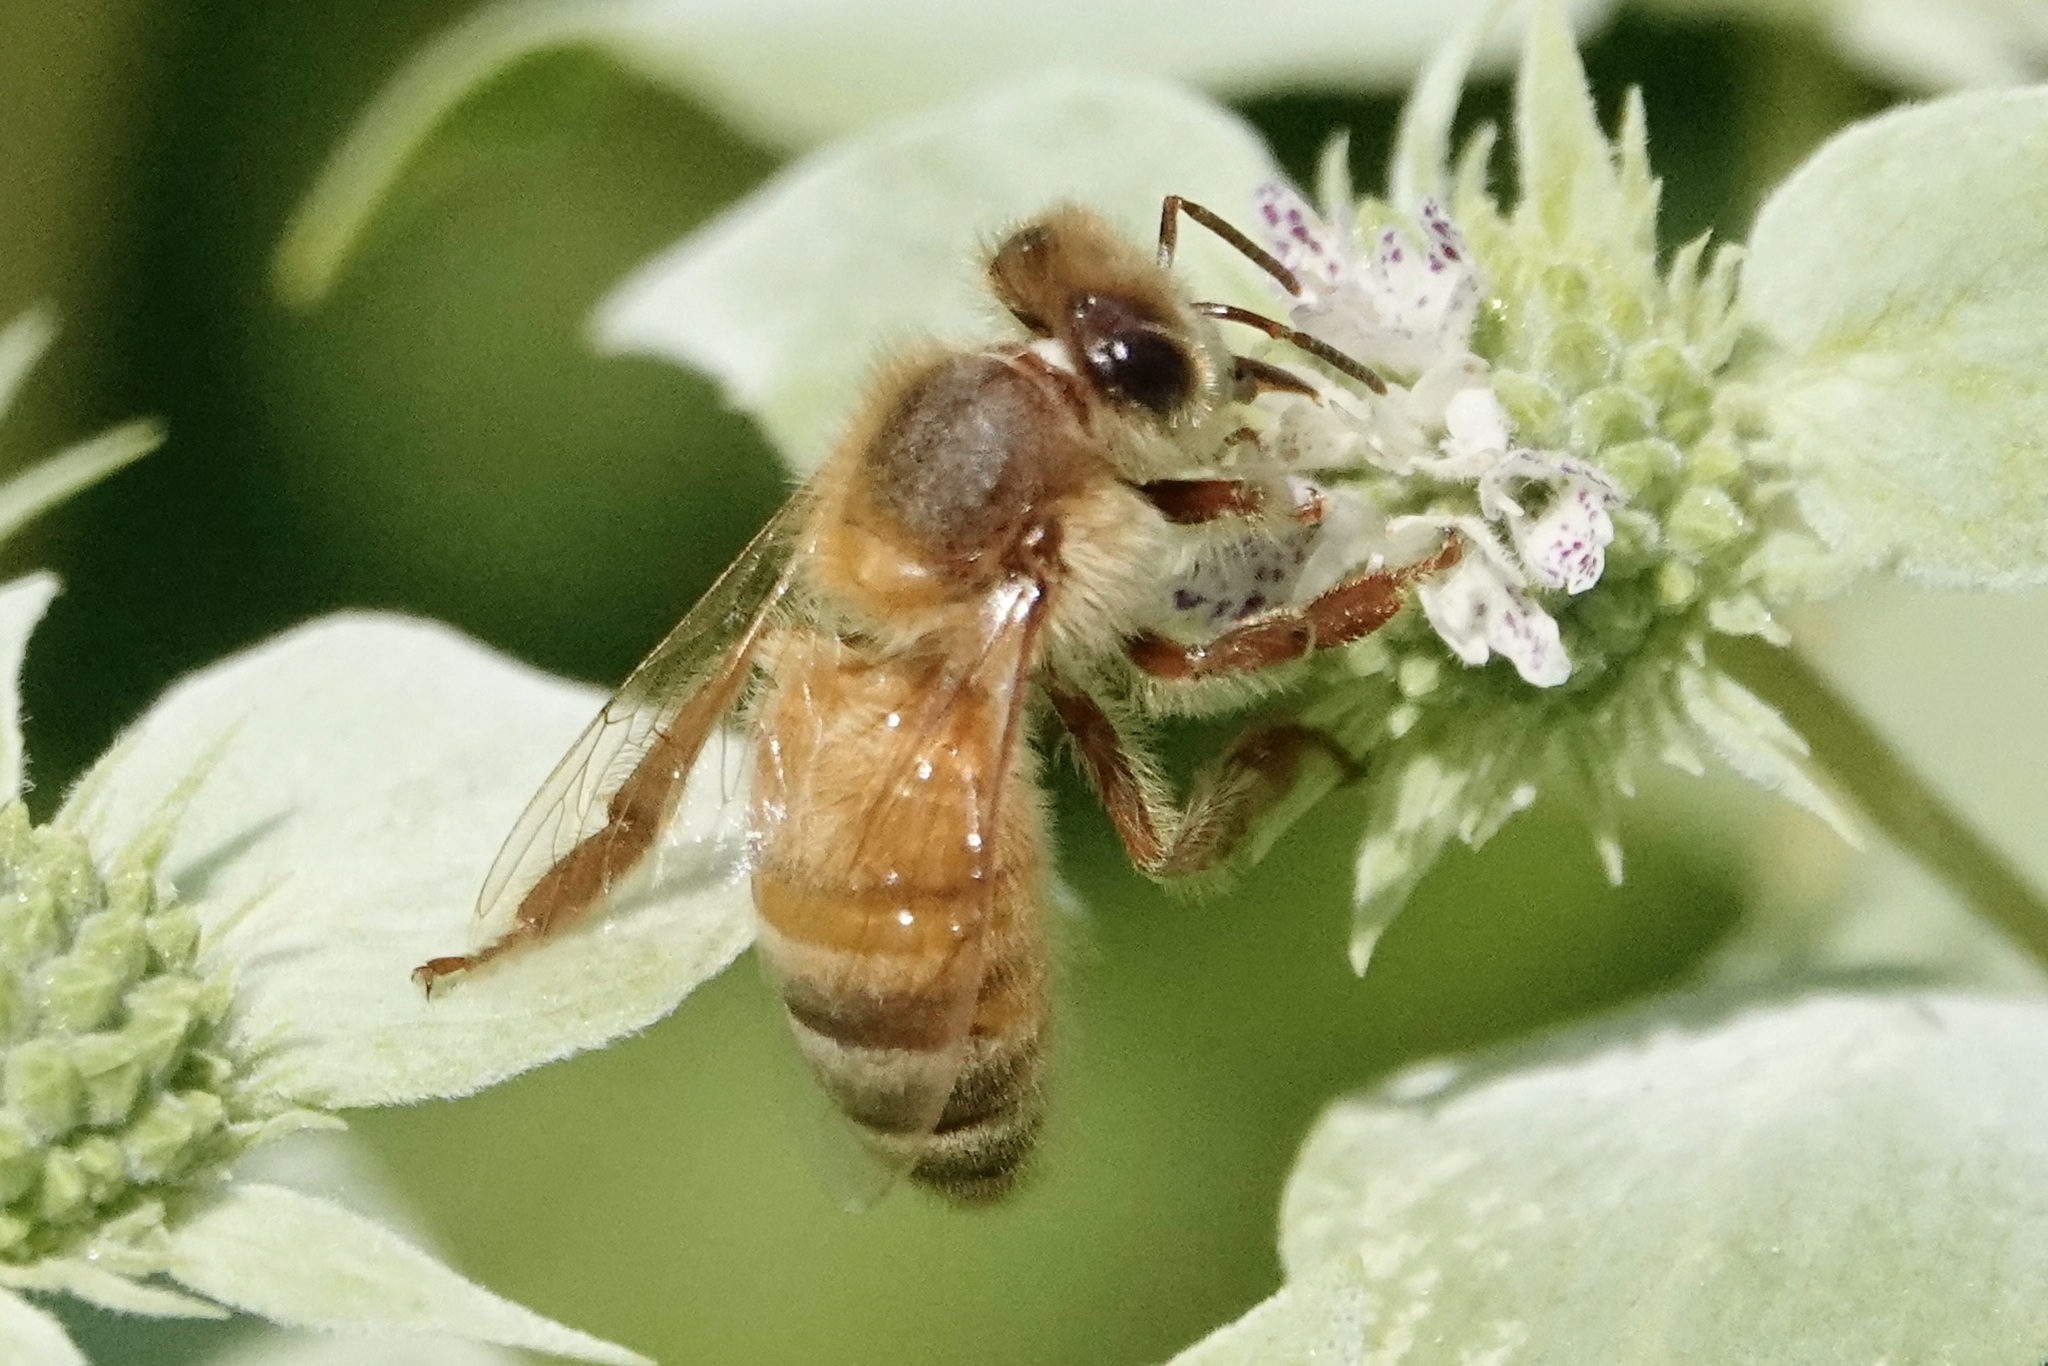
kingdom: Animalia
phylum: Arthropoda
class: Insecta
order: Hymenoptera
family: Apidae
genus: Apis
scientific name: Apis mellifera
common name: Honey bee
